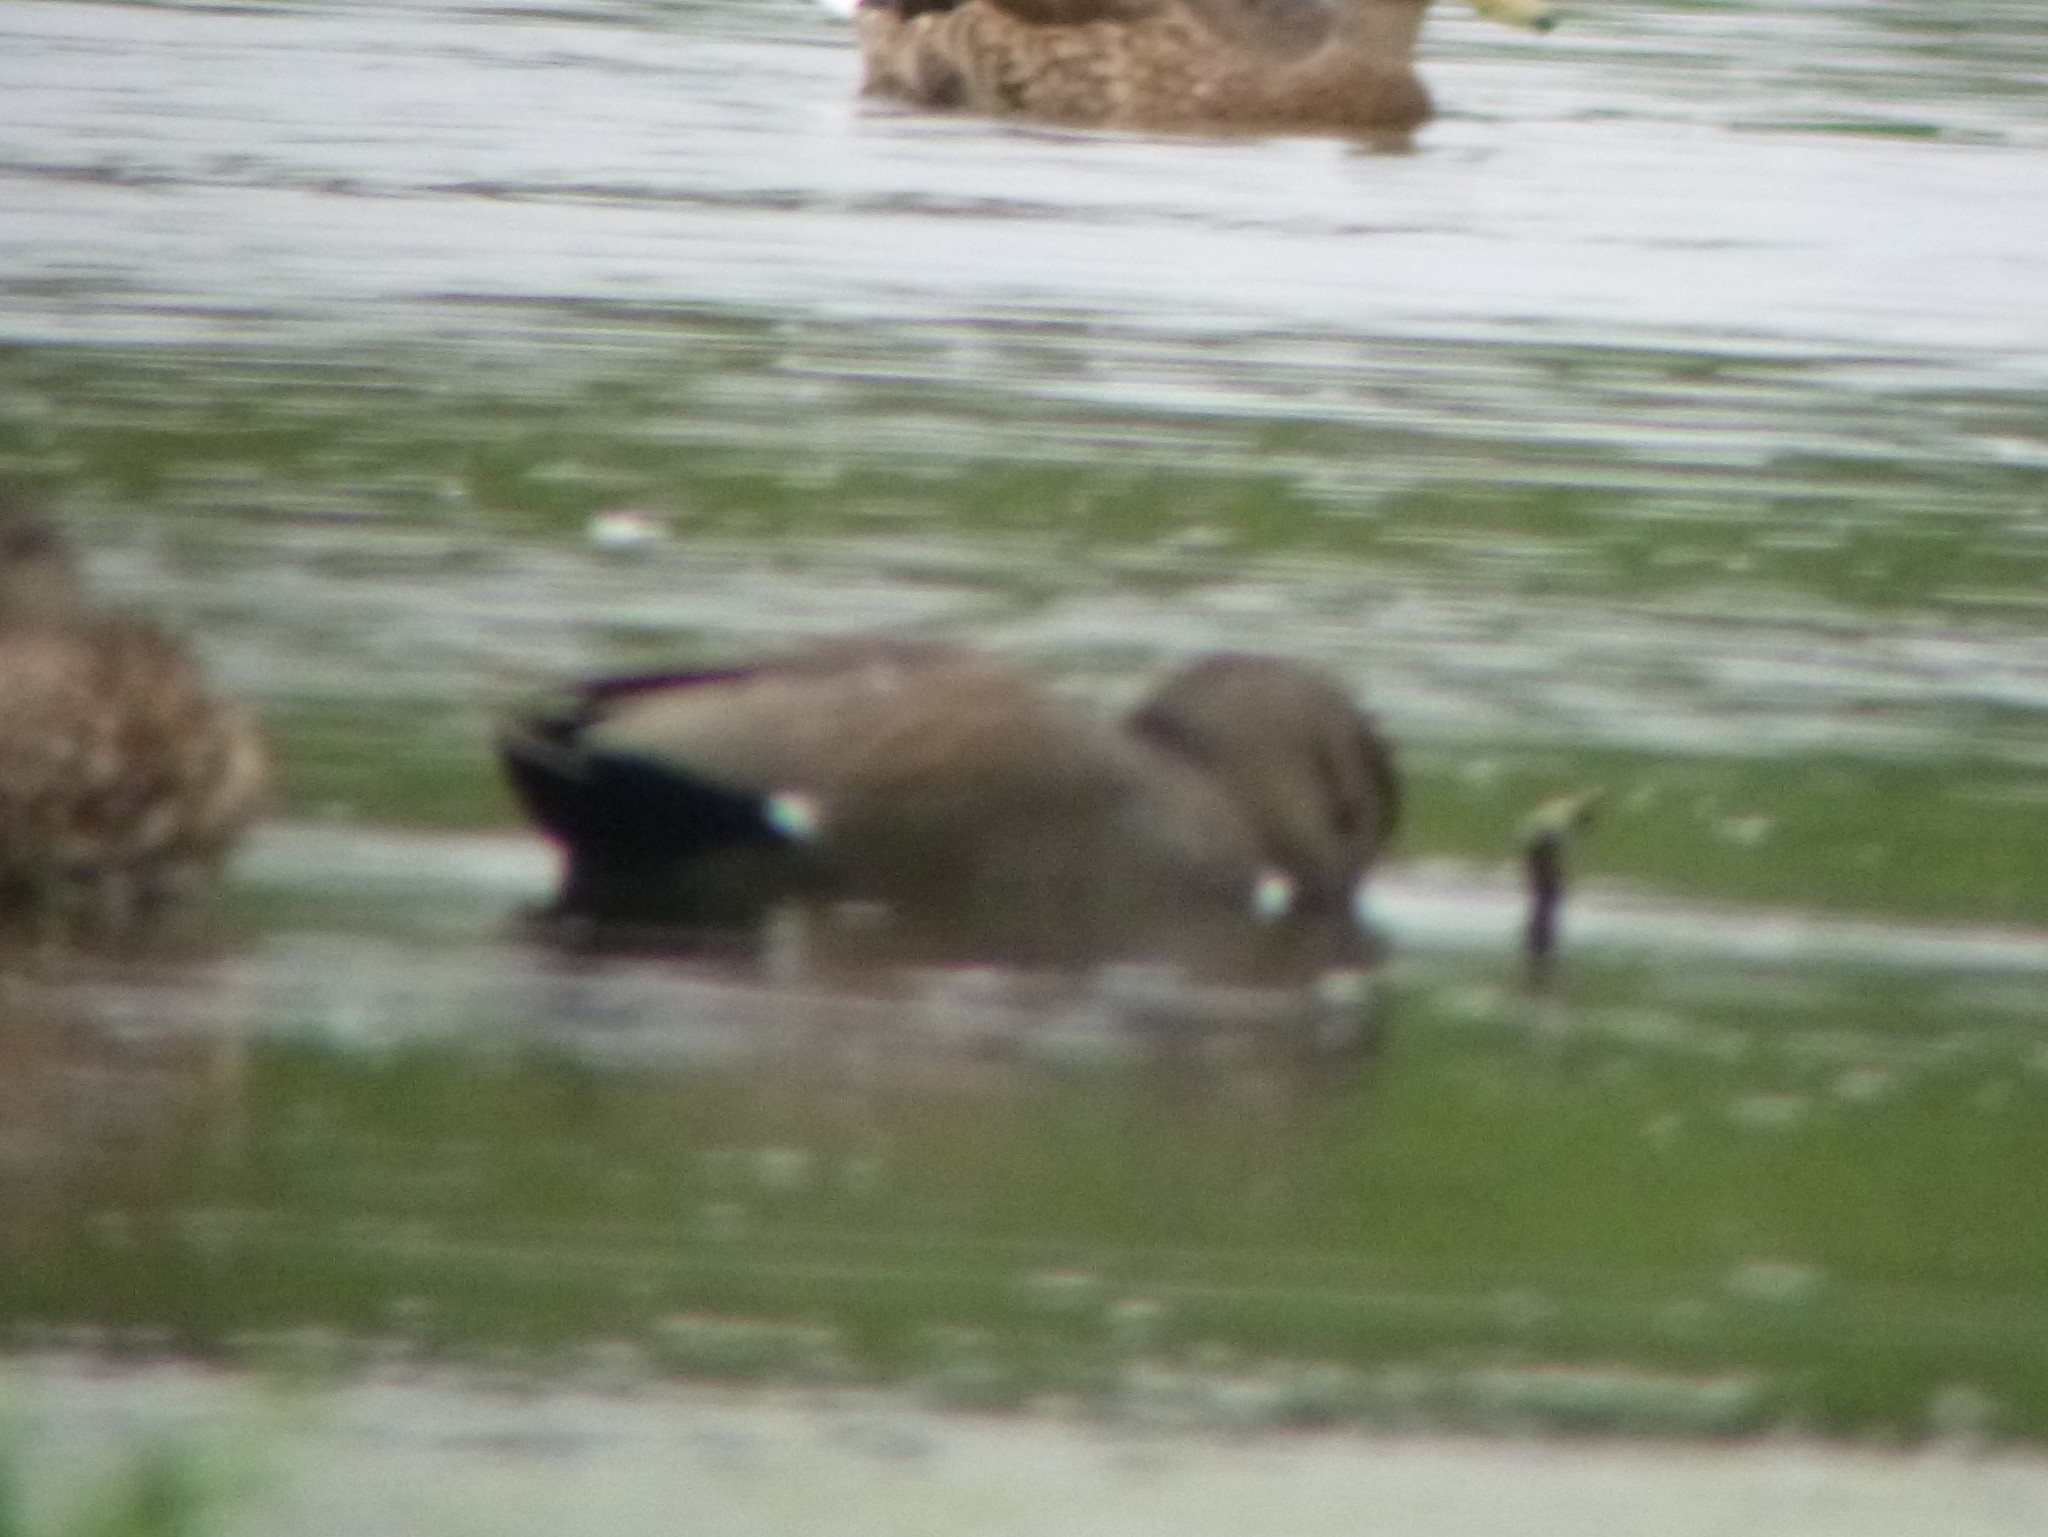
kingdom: Animalia
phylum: Chordata
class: Aves
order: Anseriformes
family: Anatidae
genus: Mareca
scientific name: Mareca strepera
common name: Gadwall
